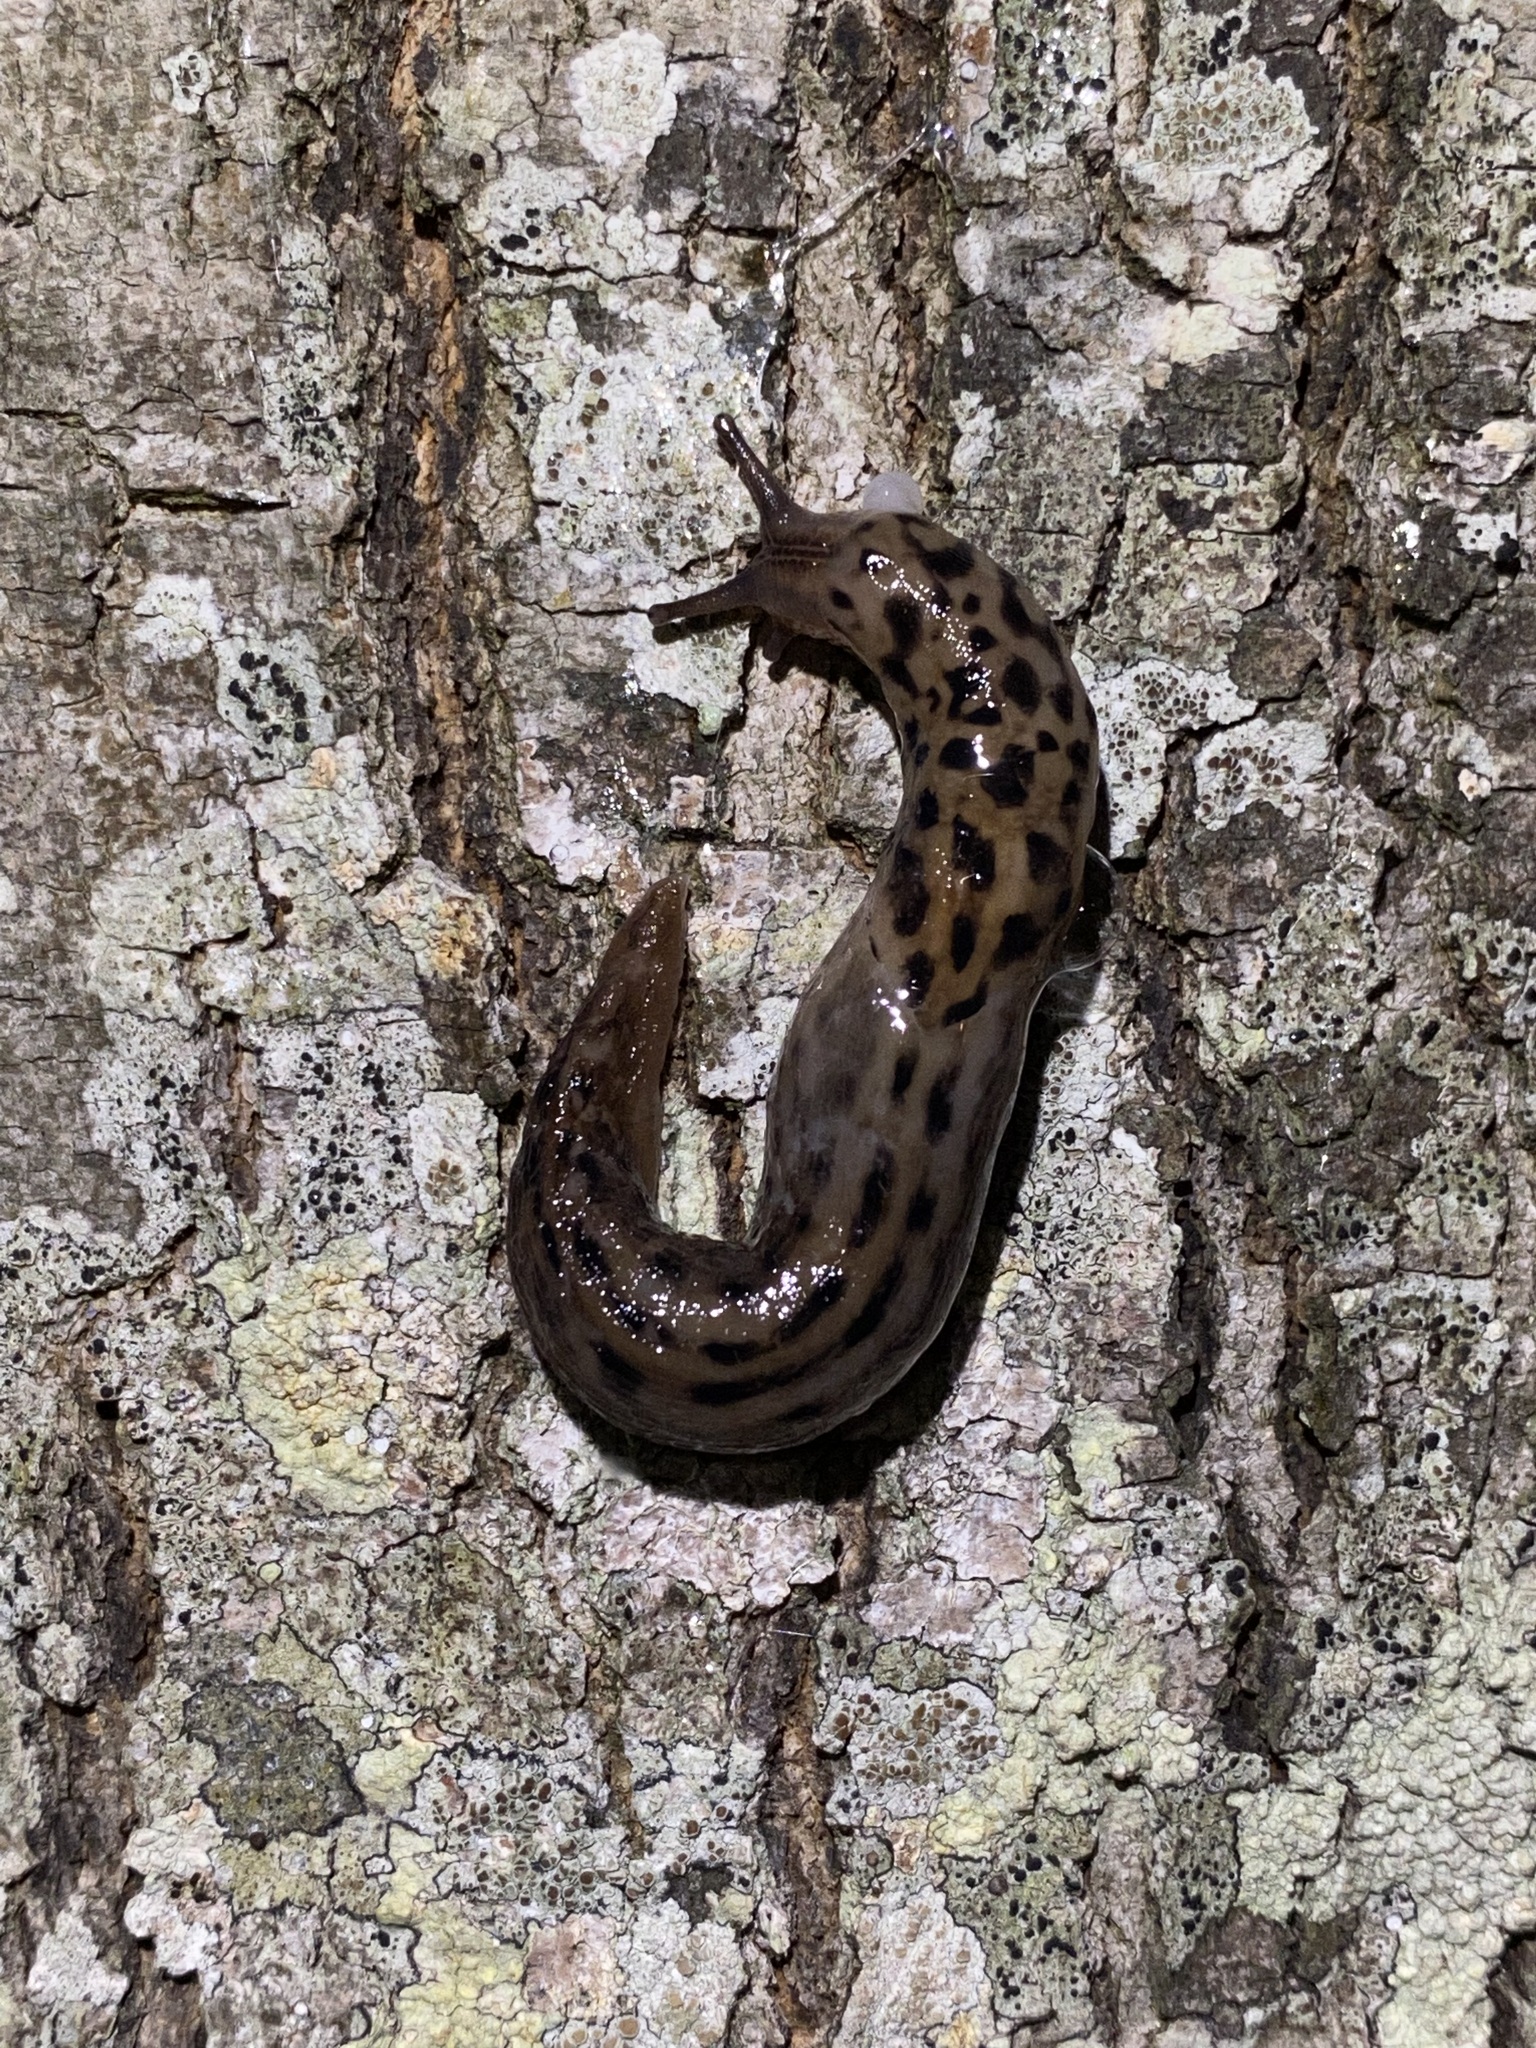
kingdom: Animalia
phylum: Mollusca
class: Gastropoda
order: Stylommatophora
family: Limacidae
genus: Limax
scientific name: Limax maximus
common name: Great grey slug
